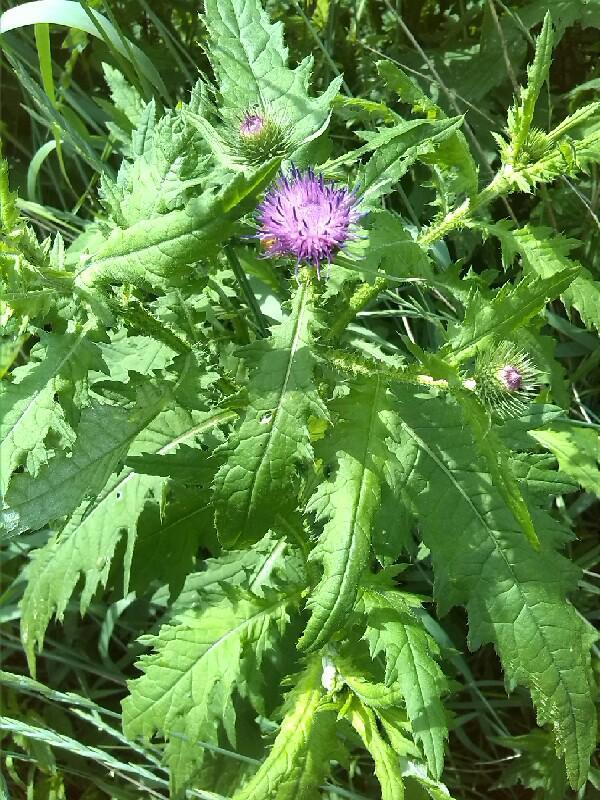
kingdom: Plantae
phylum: Tracheophyta
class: Magnoliopsida
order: Asterales
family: Asteraceae
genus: Carduus
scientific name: Carduus crispus
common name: Welted thistle
